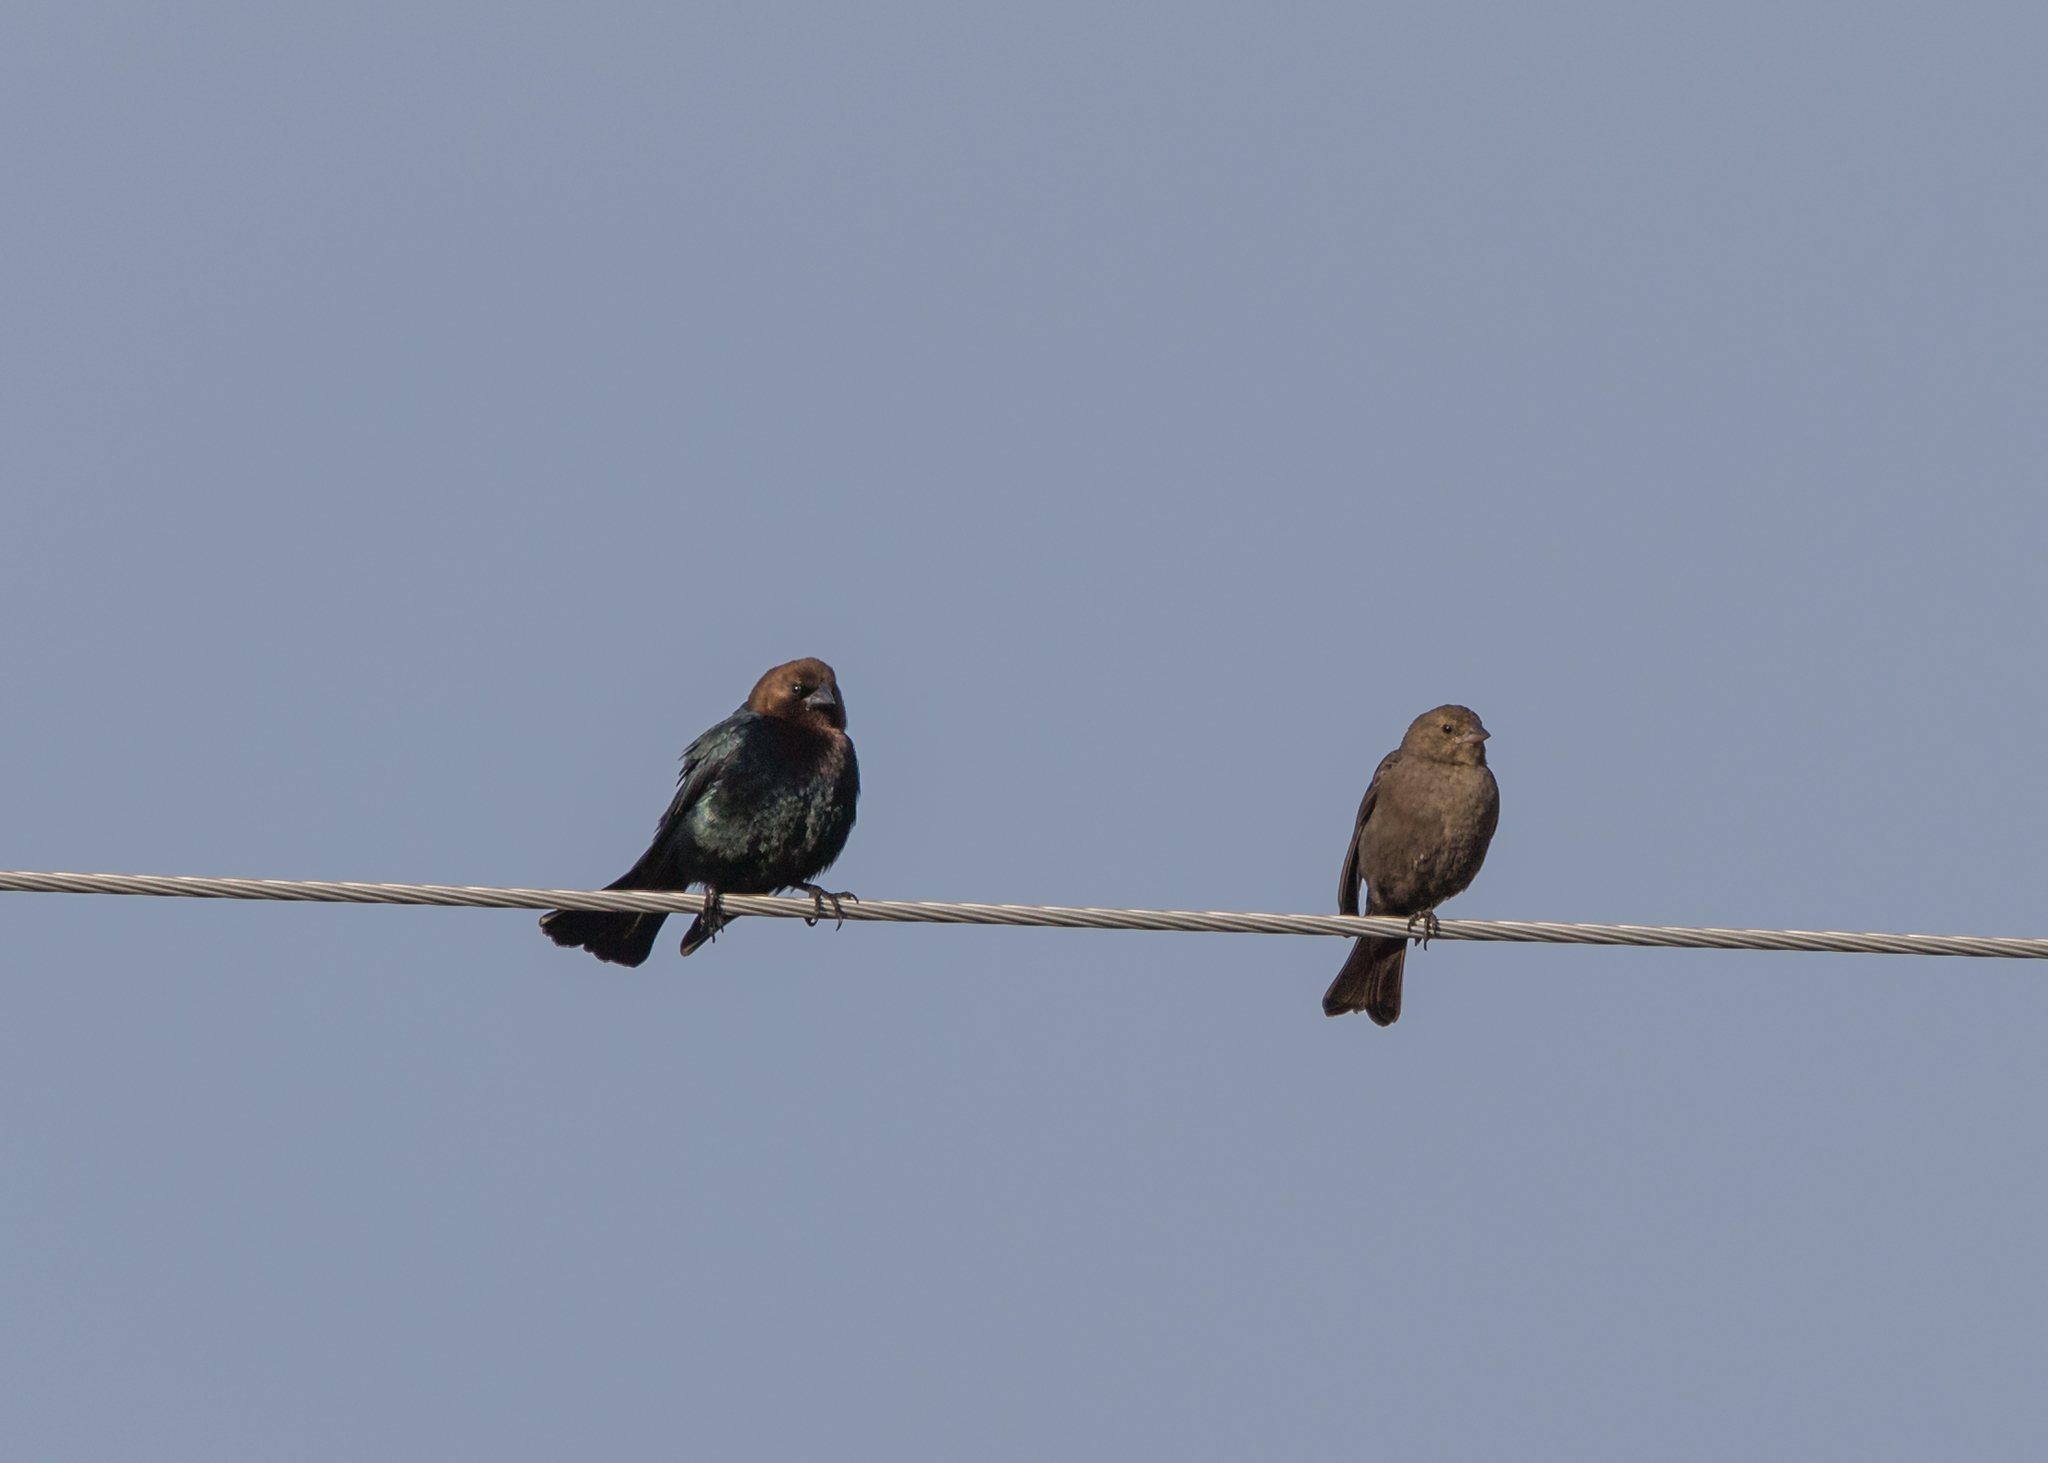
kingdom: Animalia
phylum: Chordata
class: Aves
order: Passeriformes
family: Icteridae
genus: Molothrus
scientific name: Molothrus ater
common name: Brown-headed cowbird
